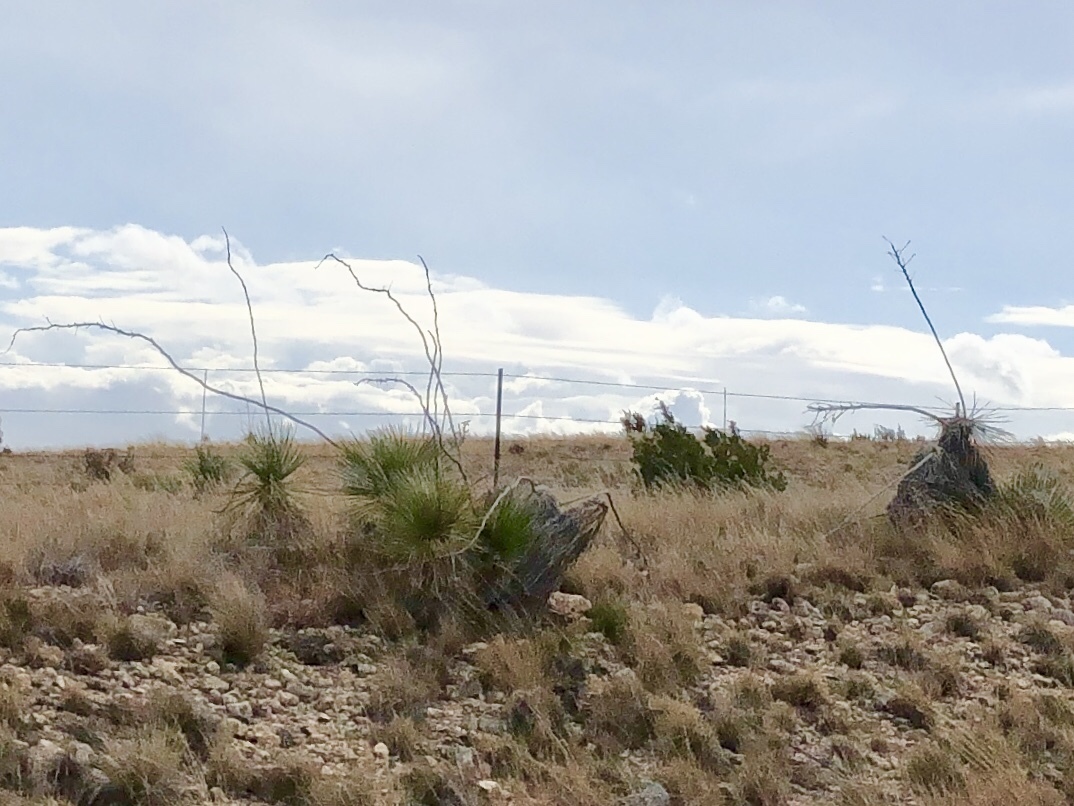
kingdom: Plantae
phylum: Tracheophyta
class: Liliopsida
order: Asparagales
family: Asparagaceae
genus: Yucca
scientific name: Yucca elata
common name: Palmella
